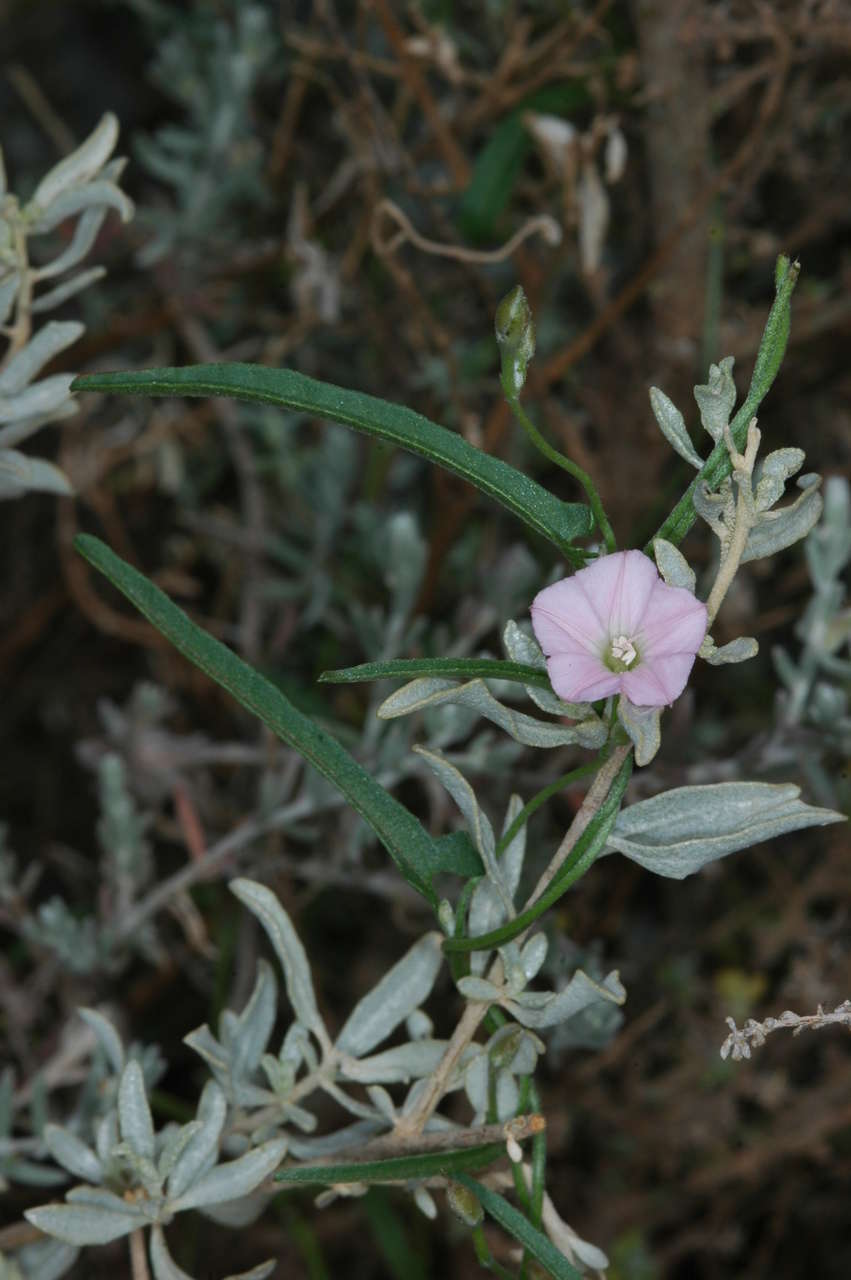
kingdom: Plantae
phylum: Tracheophyta
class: Magnoliopsida
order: Solanales
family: Convolvulaceae
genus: Convolvulus
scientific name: Convolvulus remotus
